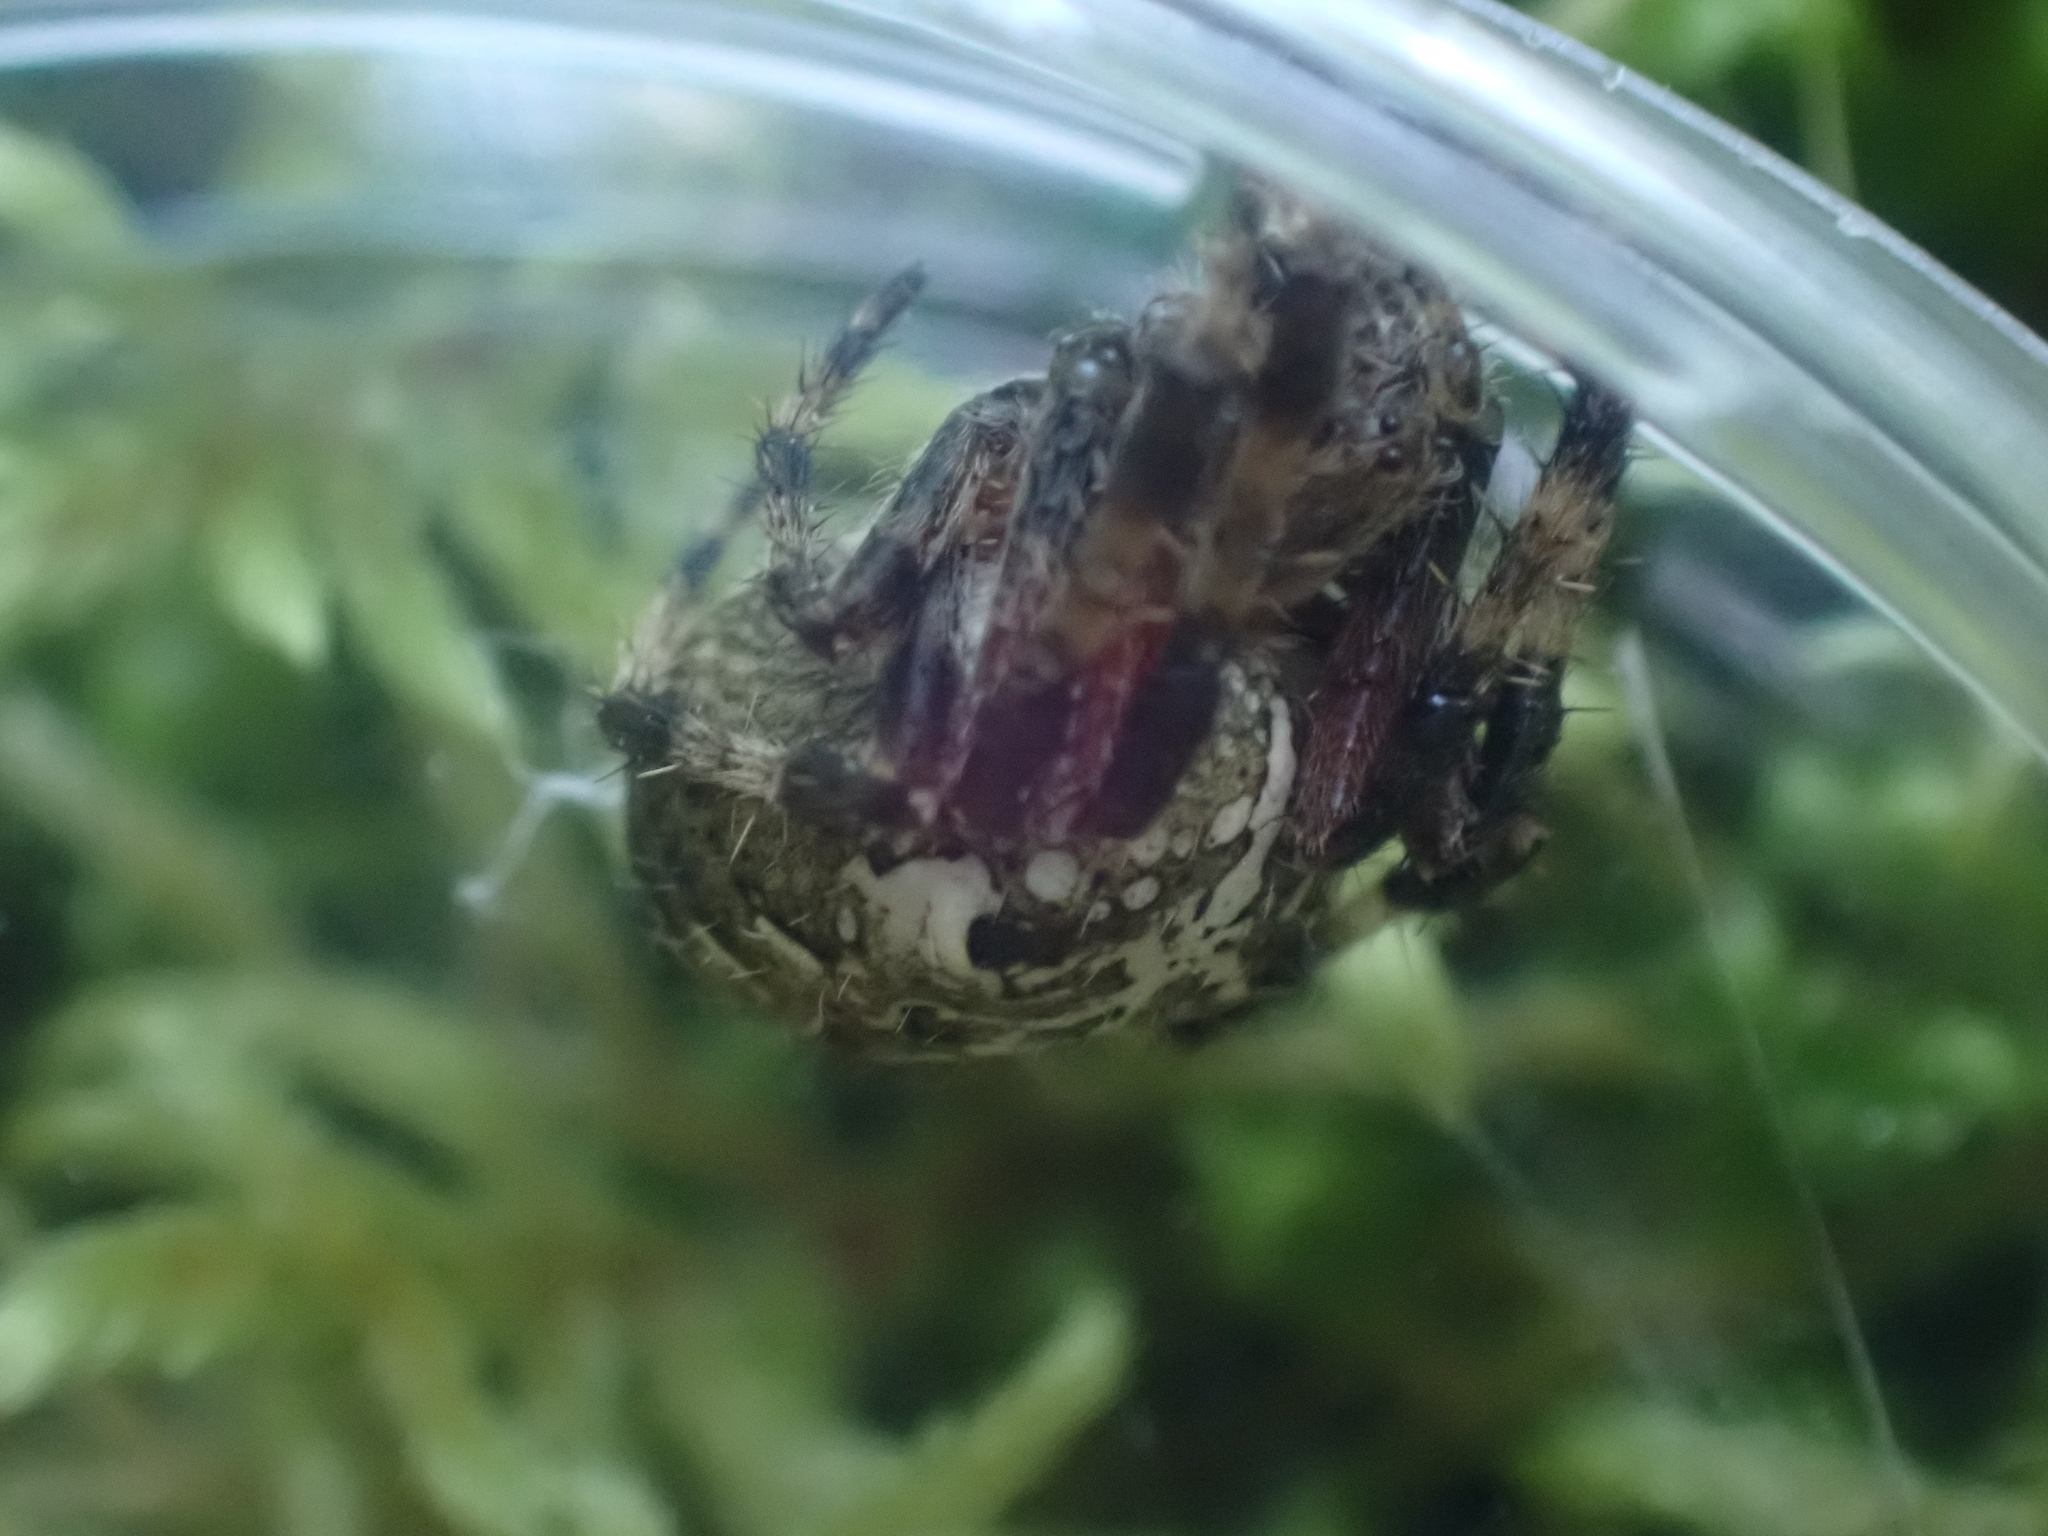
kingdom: Animalia
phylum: Arthropoda
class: Arachnida
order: Araneae
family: Araneidae
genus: Araneus
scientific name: Araneus nordmanni
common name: Nordmann's orbweaver
